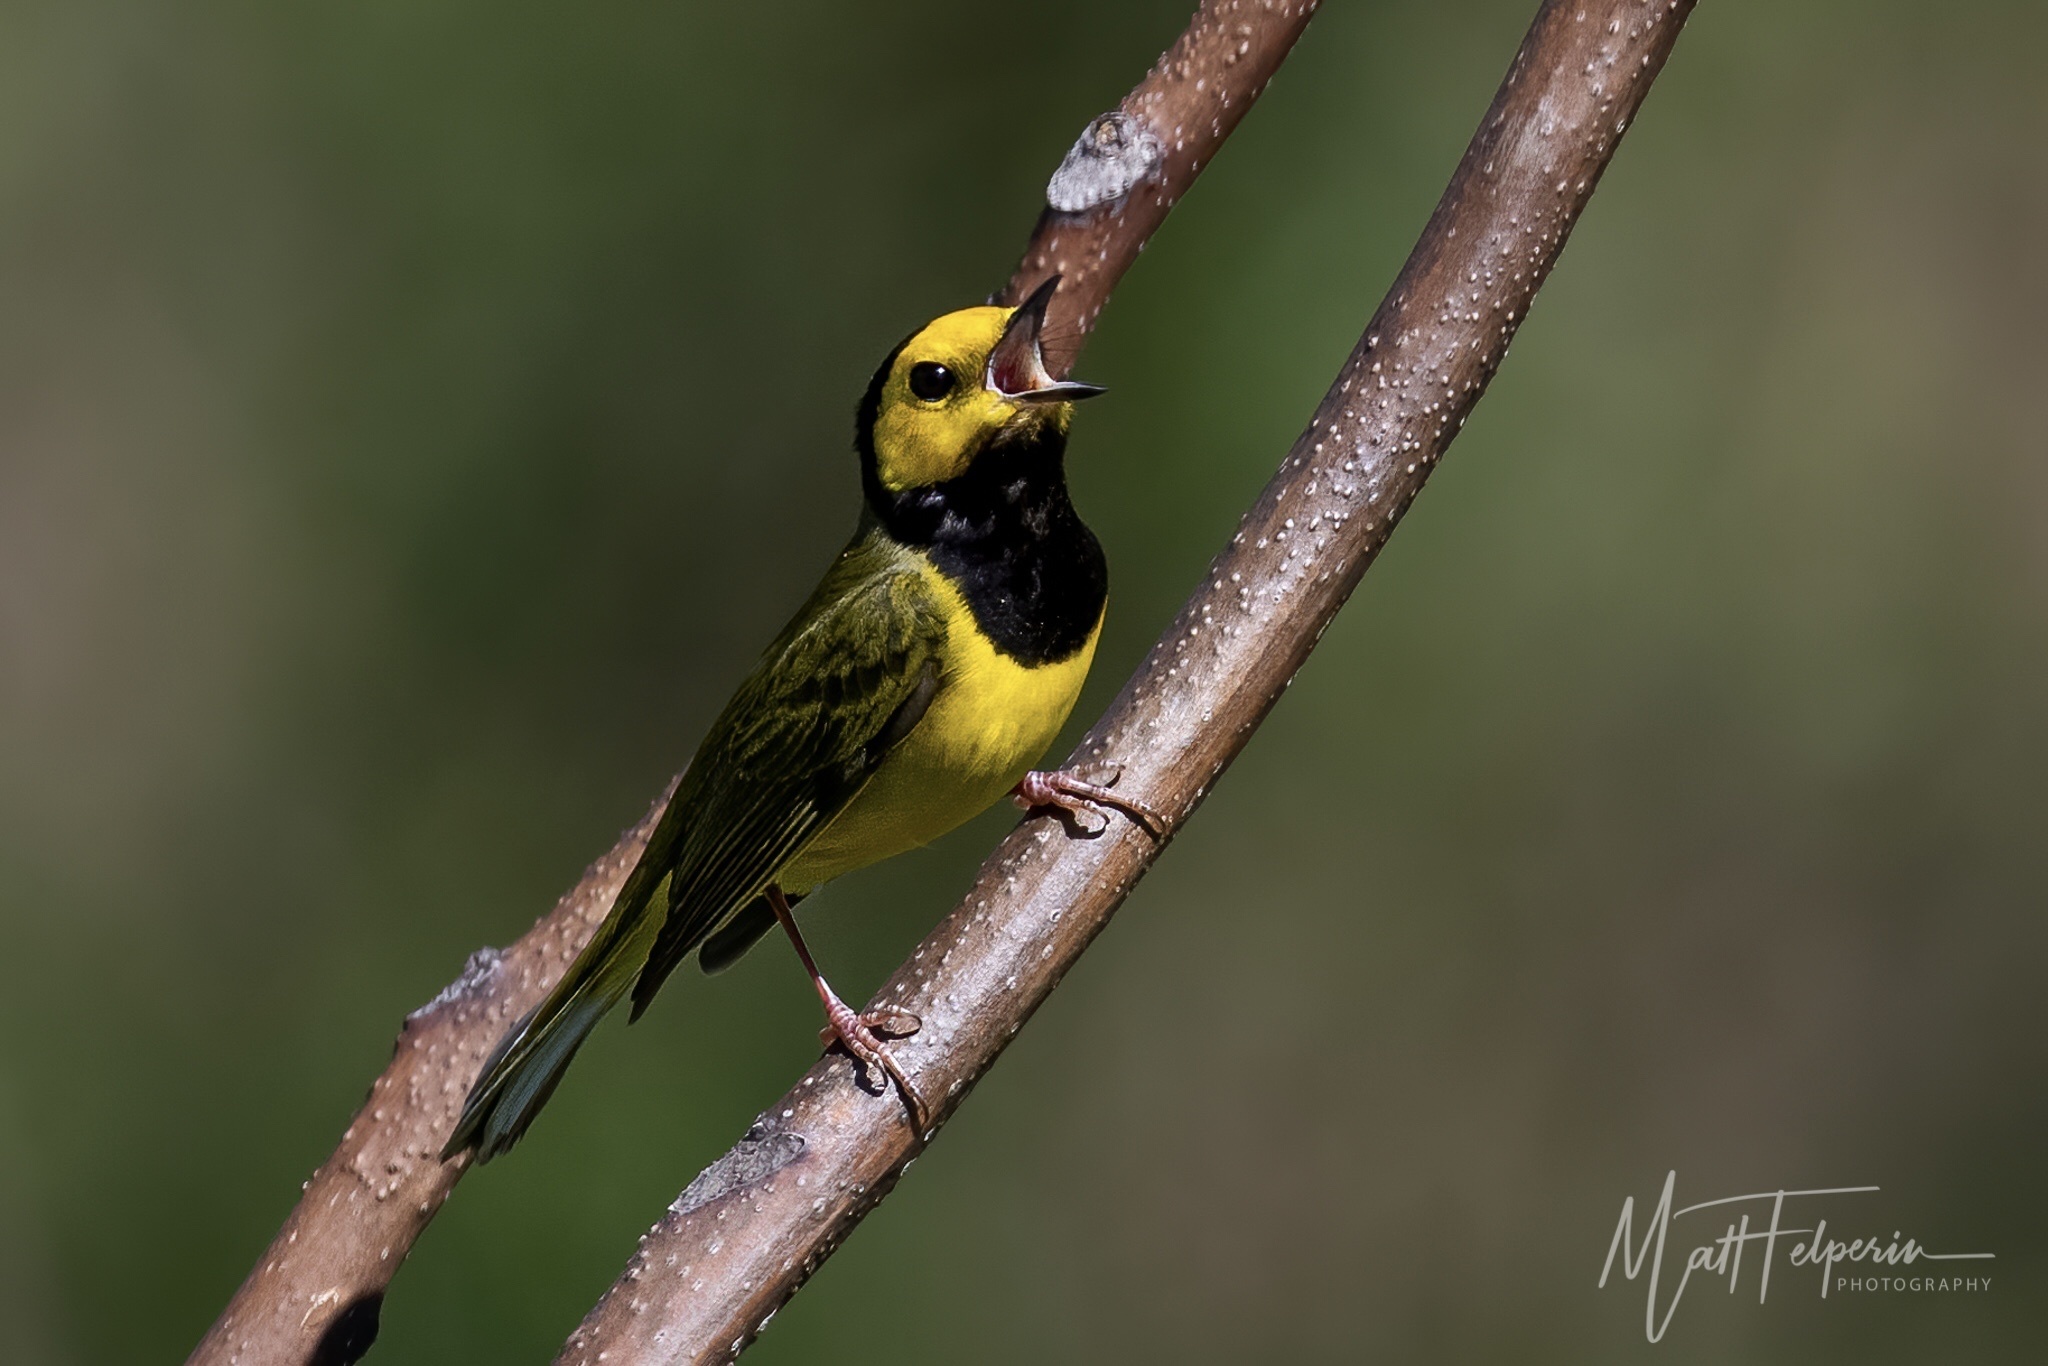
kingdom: Animalia
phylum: Chordata
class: Aves
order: Passeriformes
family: Parulidae
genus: Setophaga
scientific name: Setophaga citrina
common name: Hooded warbler
